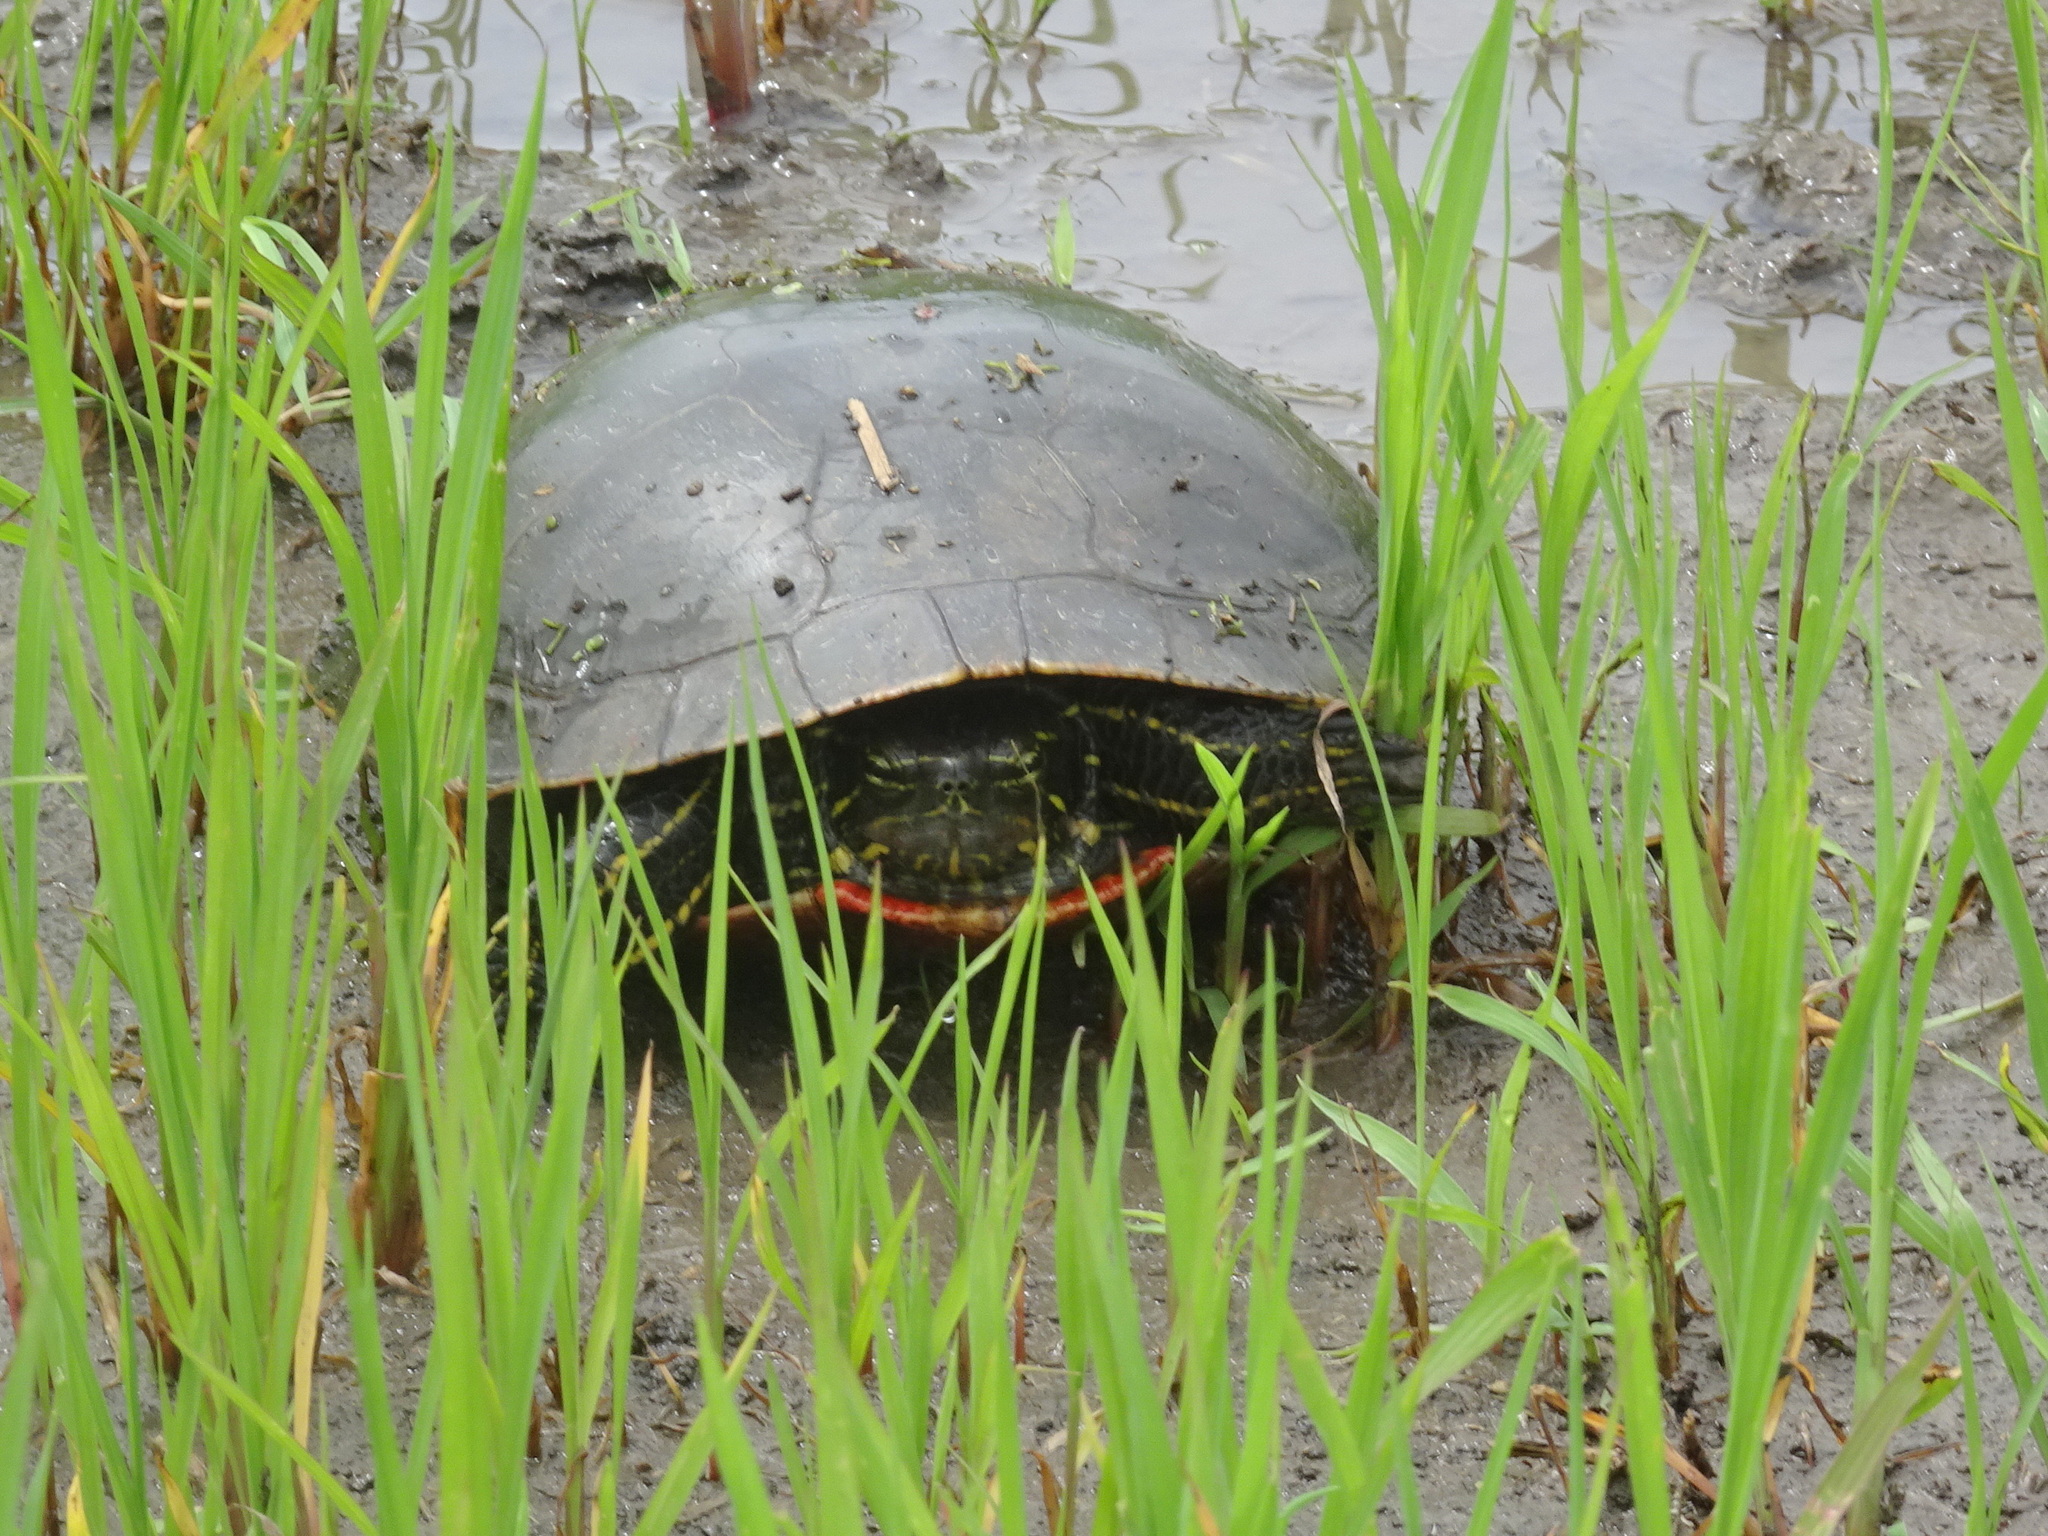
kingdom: Animalia
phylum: Chordata
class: Testudines
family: Emydidae
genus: Chrysemys
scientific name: Chrysemys picta
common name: Painted turtle
